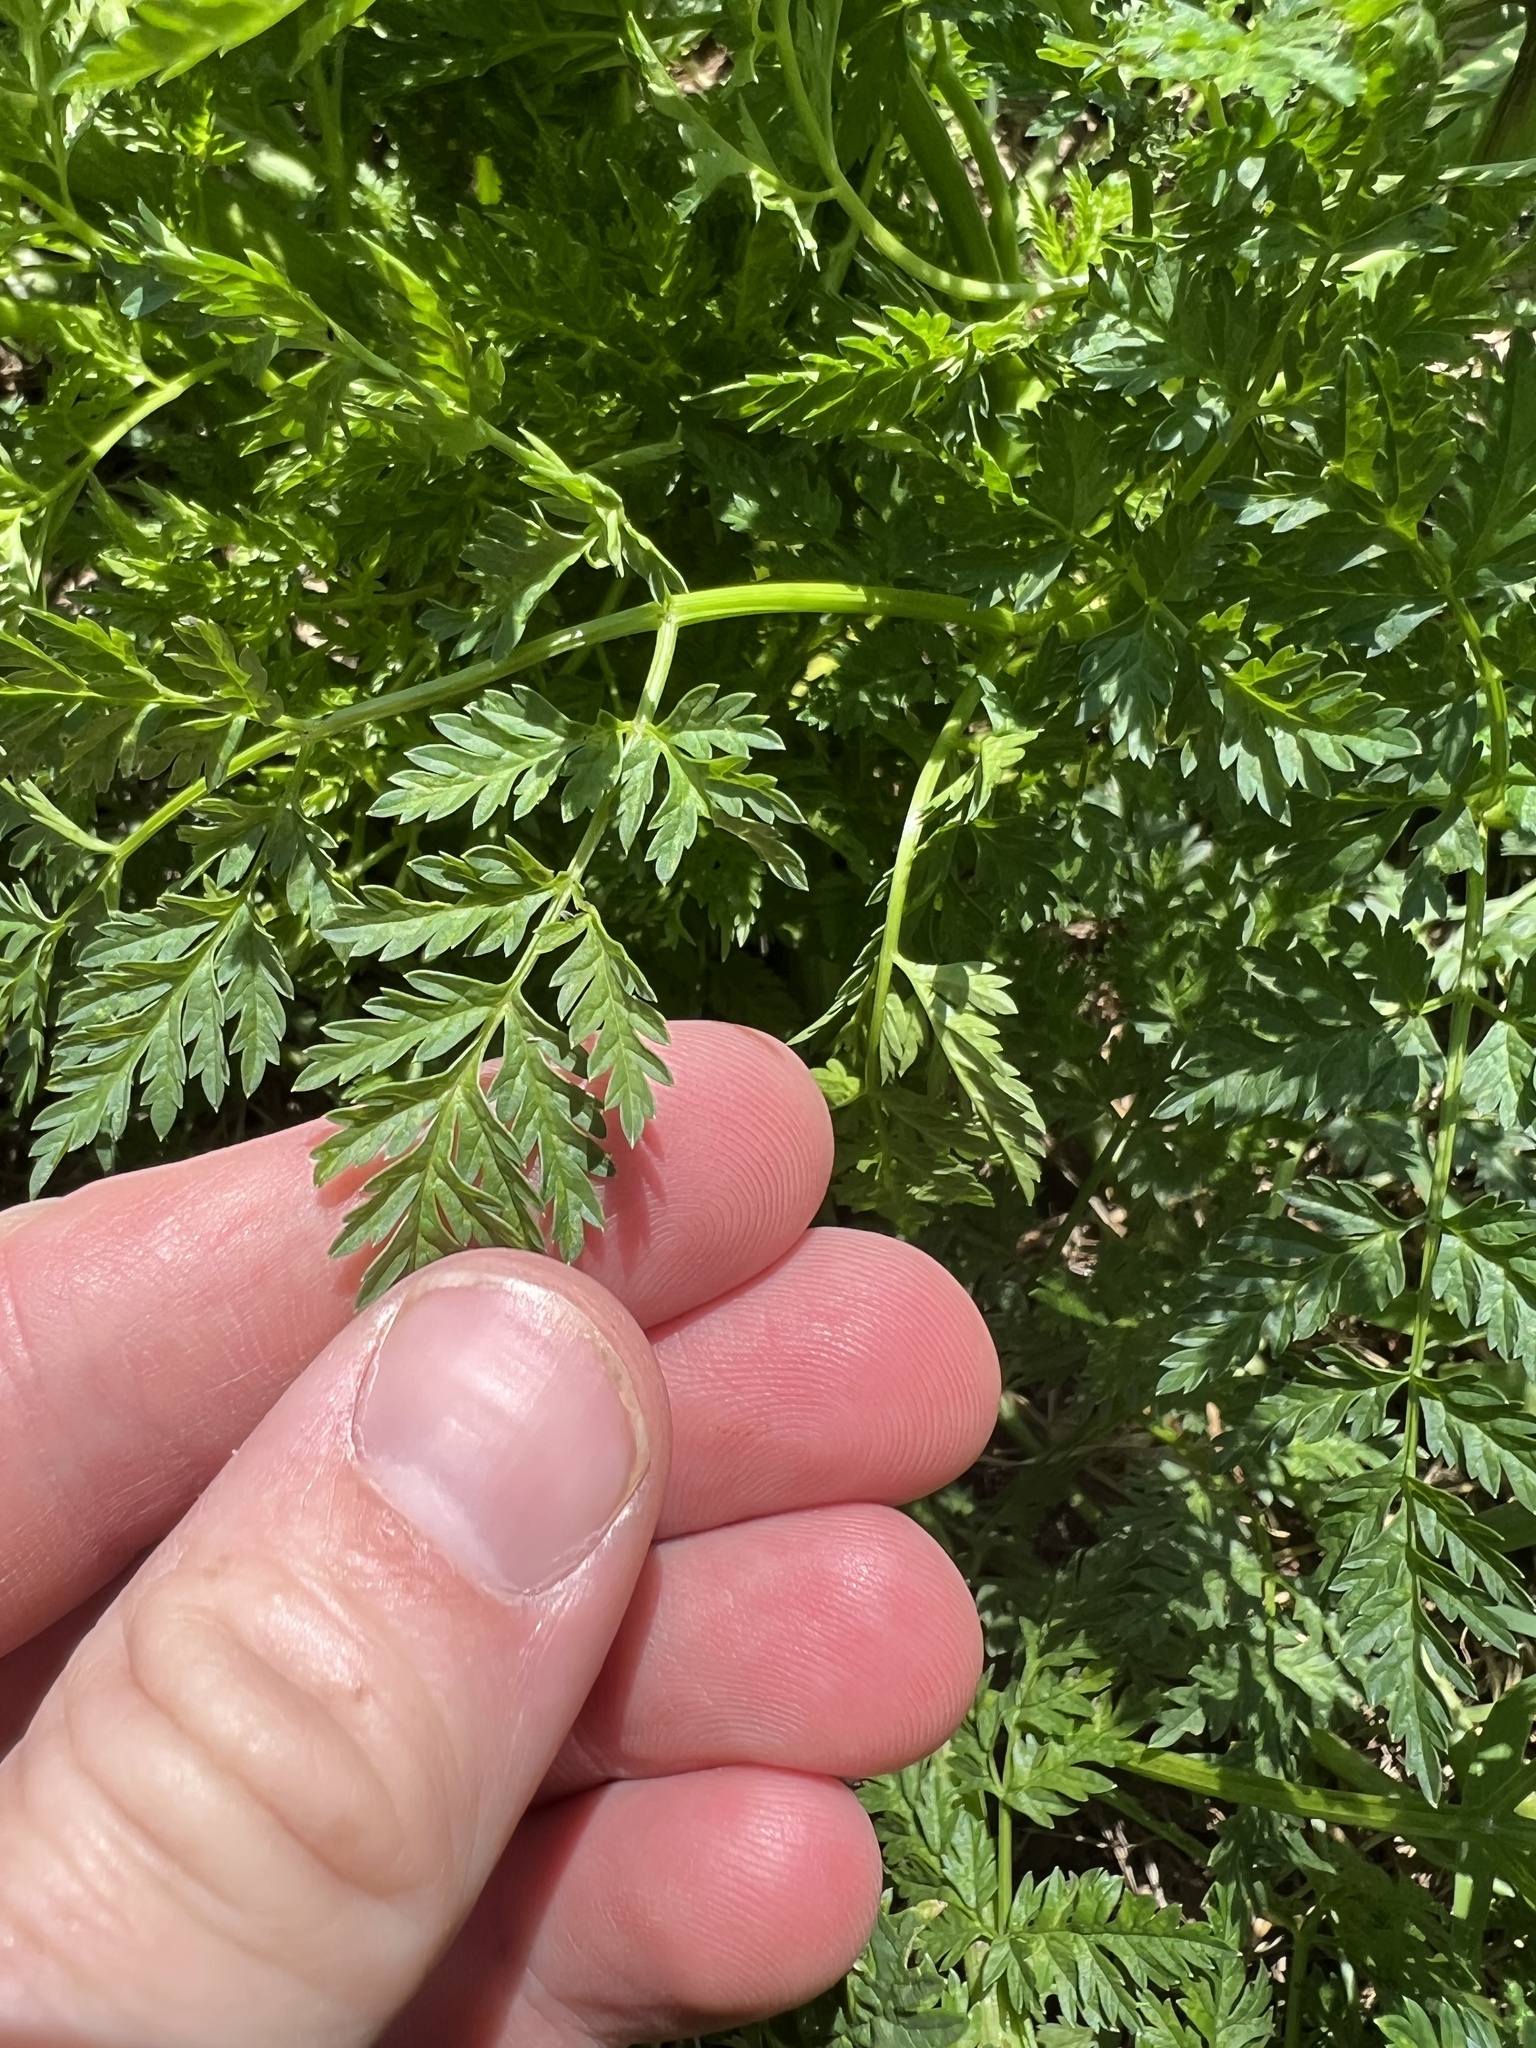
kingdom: Plantae
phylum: Tracheophyta
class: Magnoliopsida
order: Apiales
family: Apiaceae
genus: Conium
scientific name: Conium maculatum
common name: Hemlock
